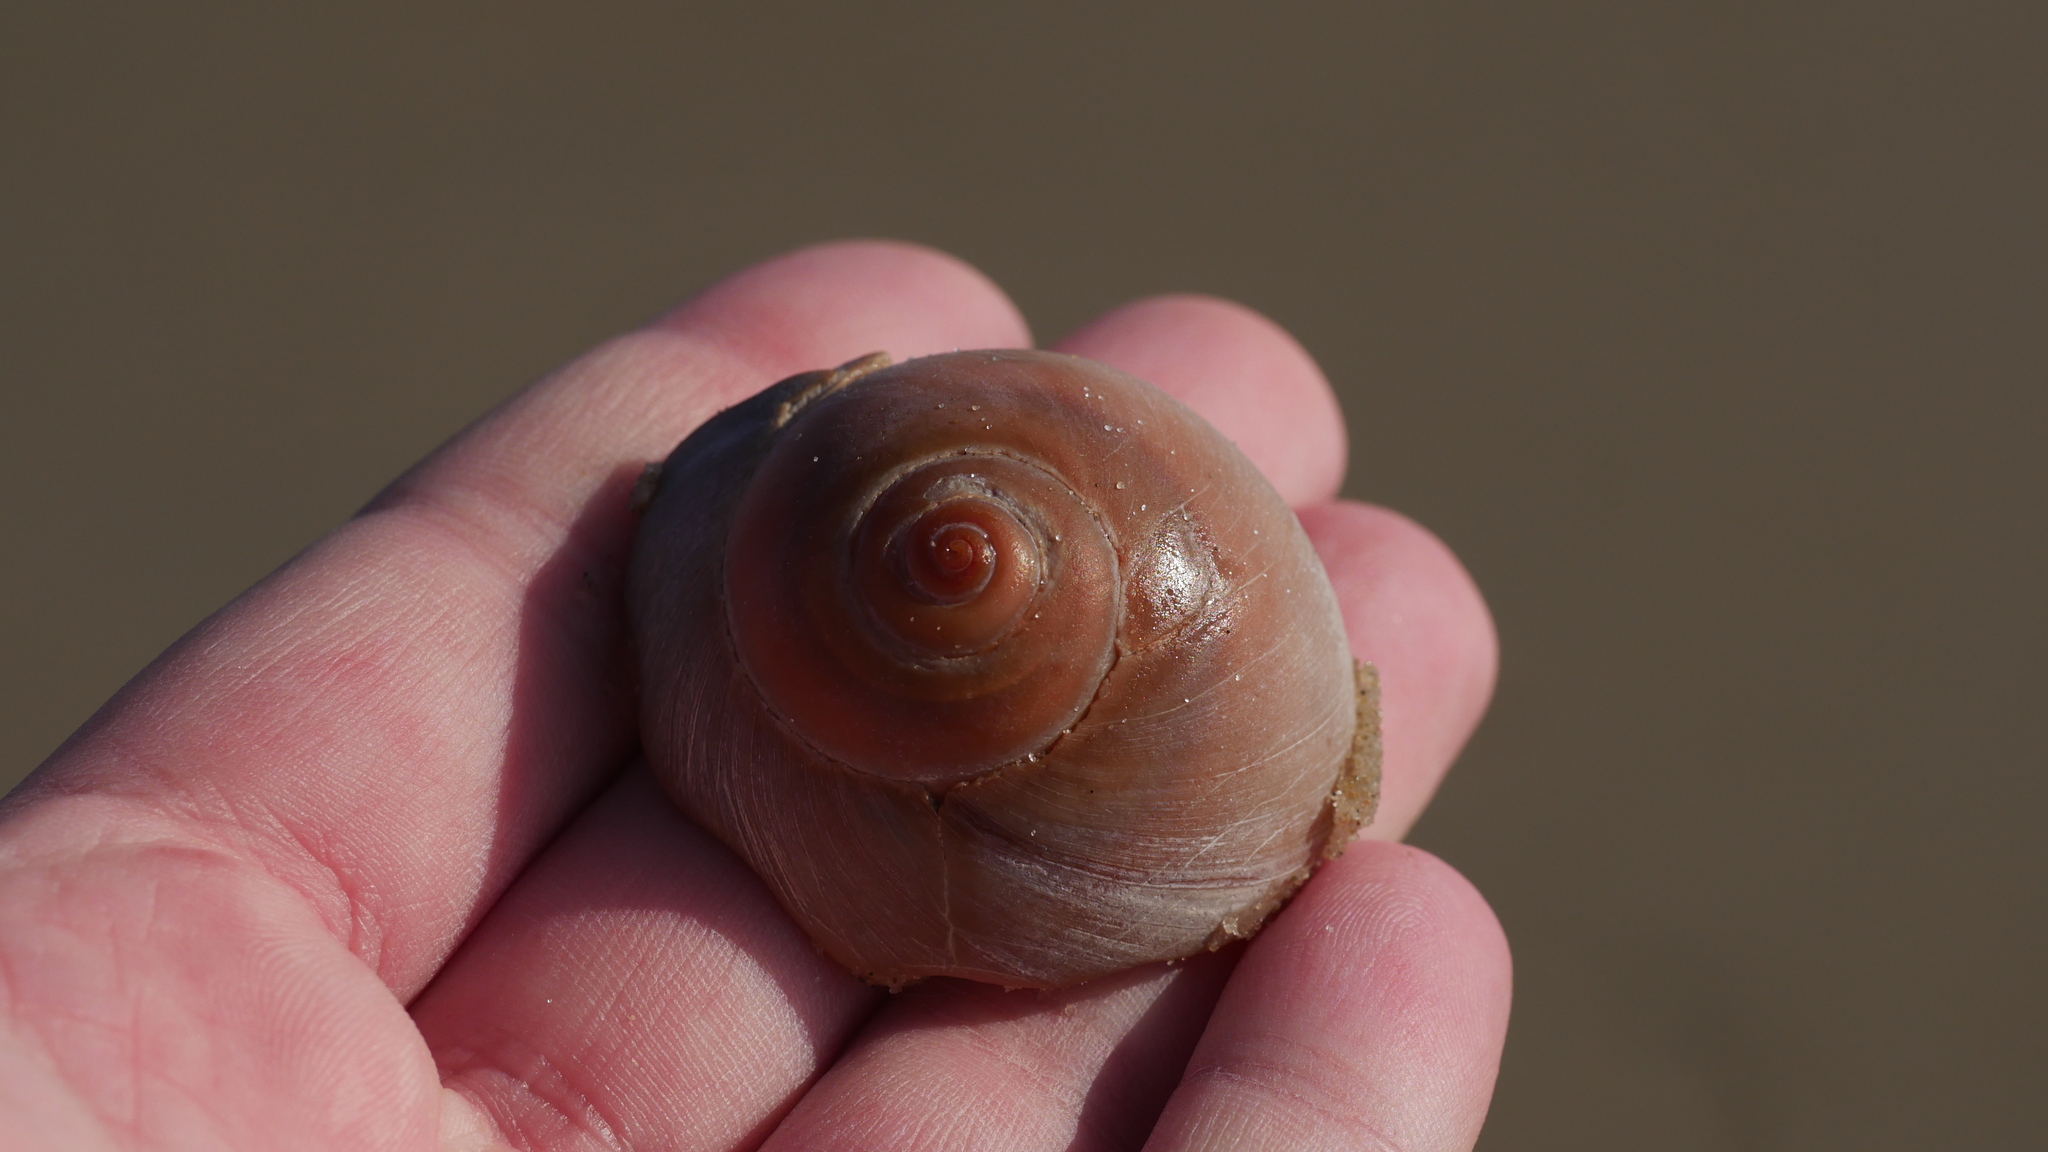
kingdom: Animalia
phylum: Mollusca
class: Gastropoda
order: Littorinimorpha
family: Naticidae
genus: Neverita
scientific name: Neverita duplicata
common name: Lobed moonsnail
